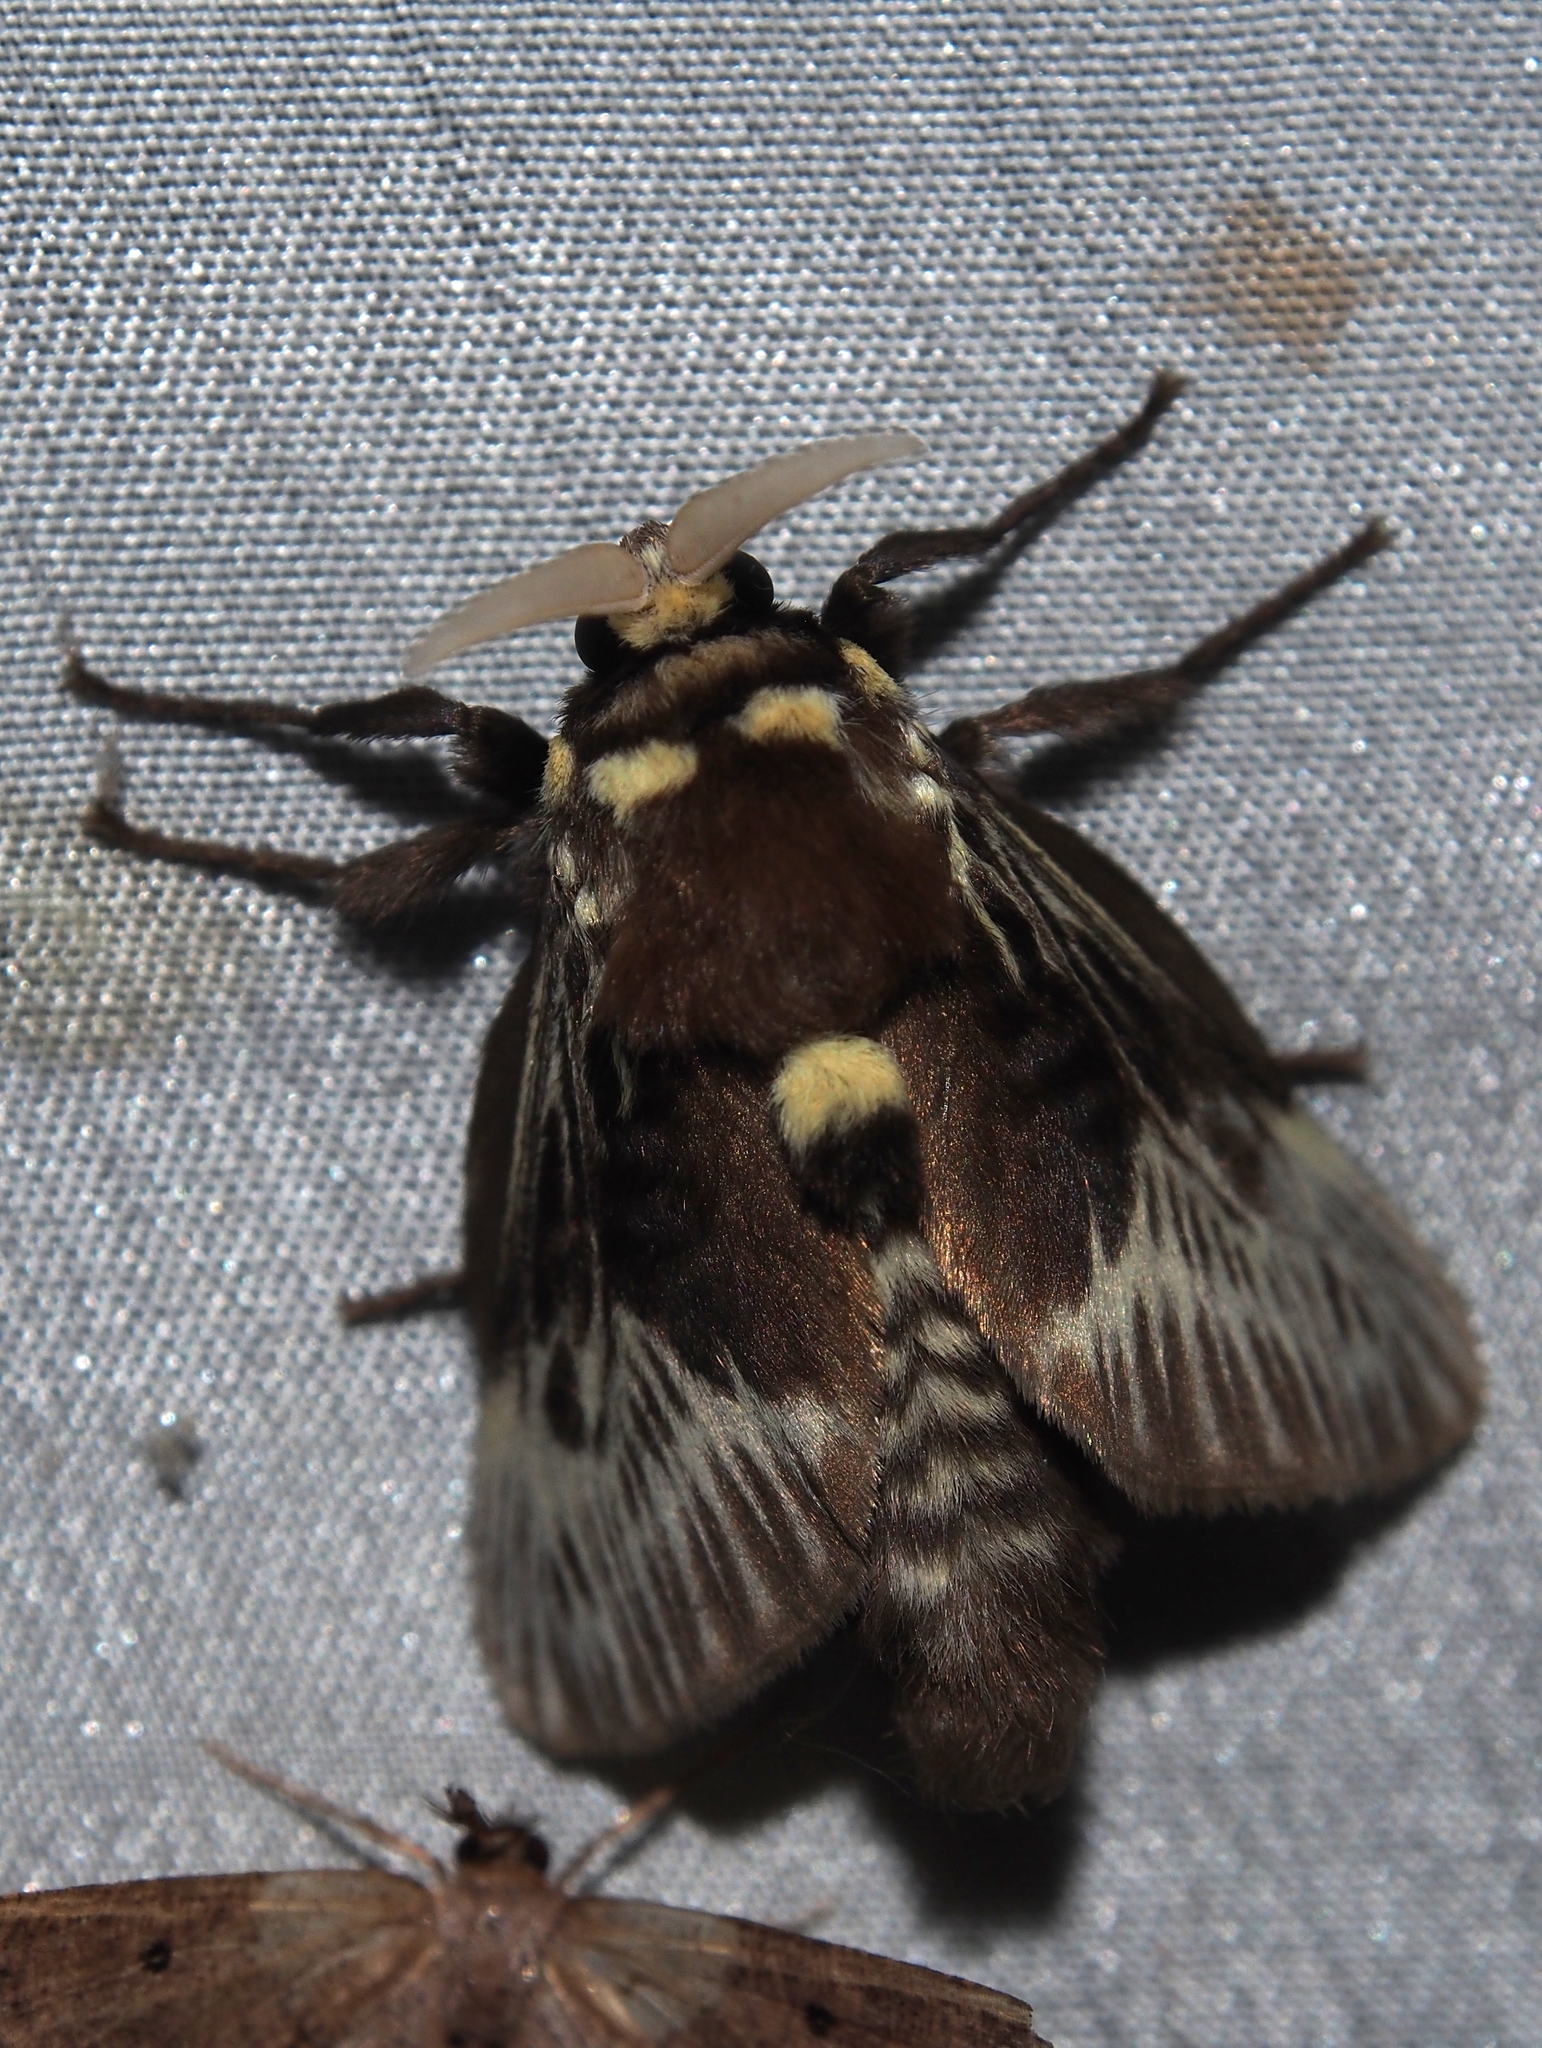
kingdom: Animalia
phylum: Arthropoda
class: Insecta
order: Lepidoptera
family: Megalopygidae
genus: Megalopyge
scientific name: Megalopyge albicollis
